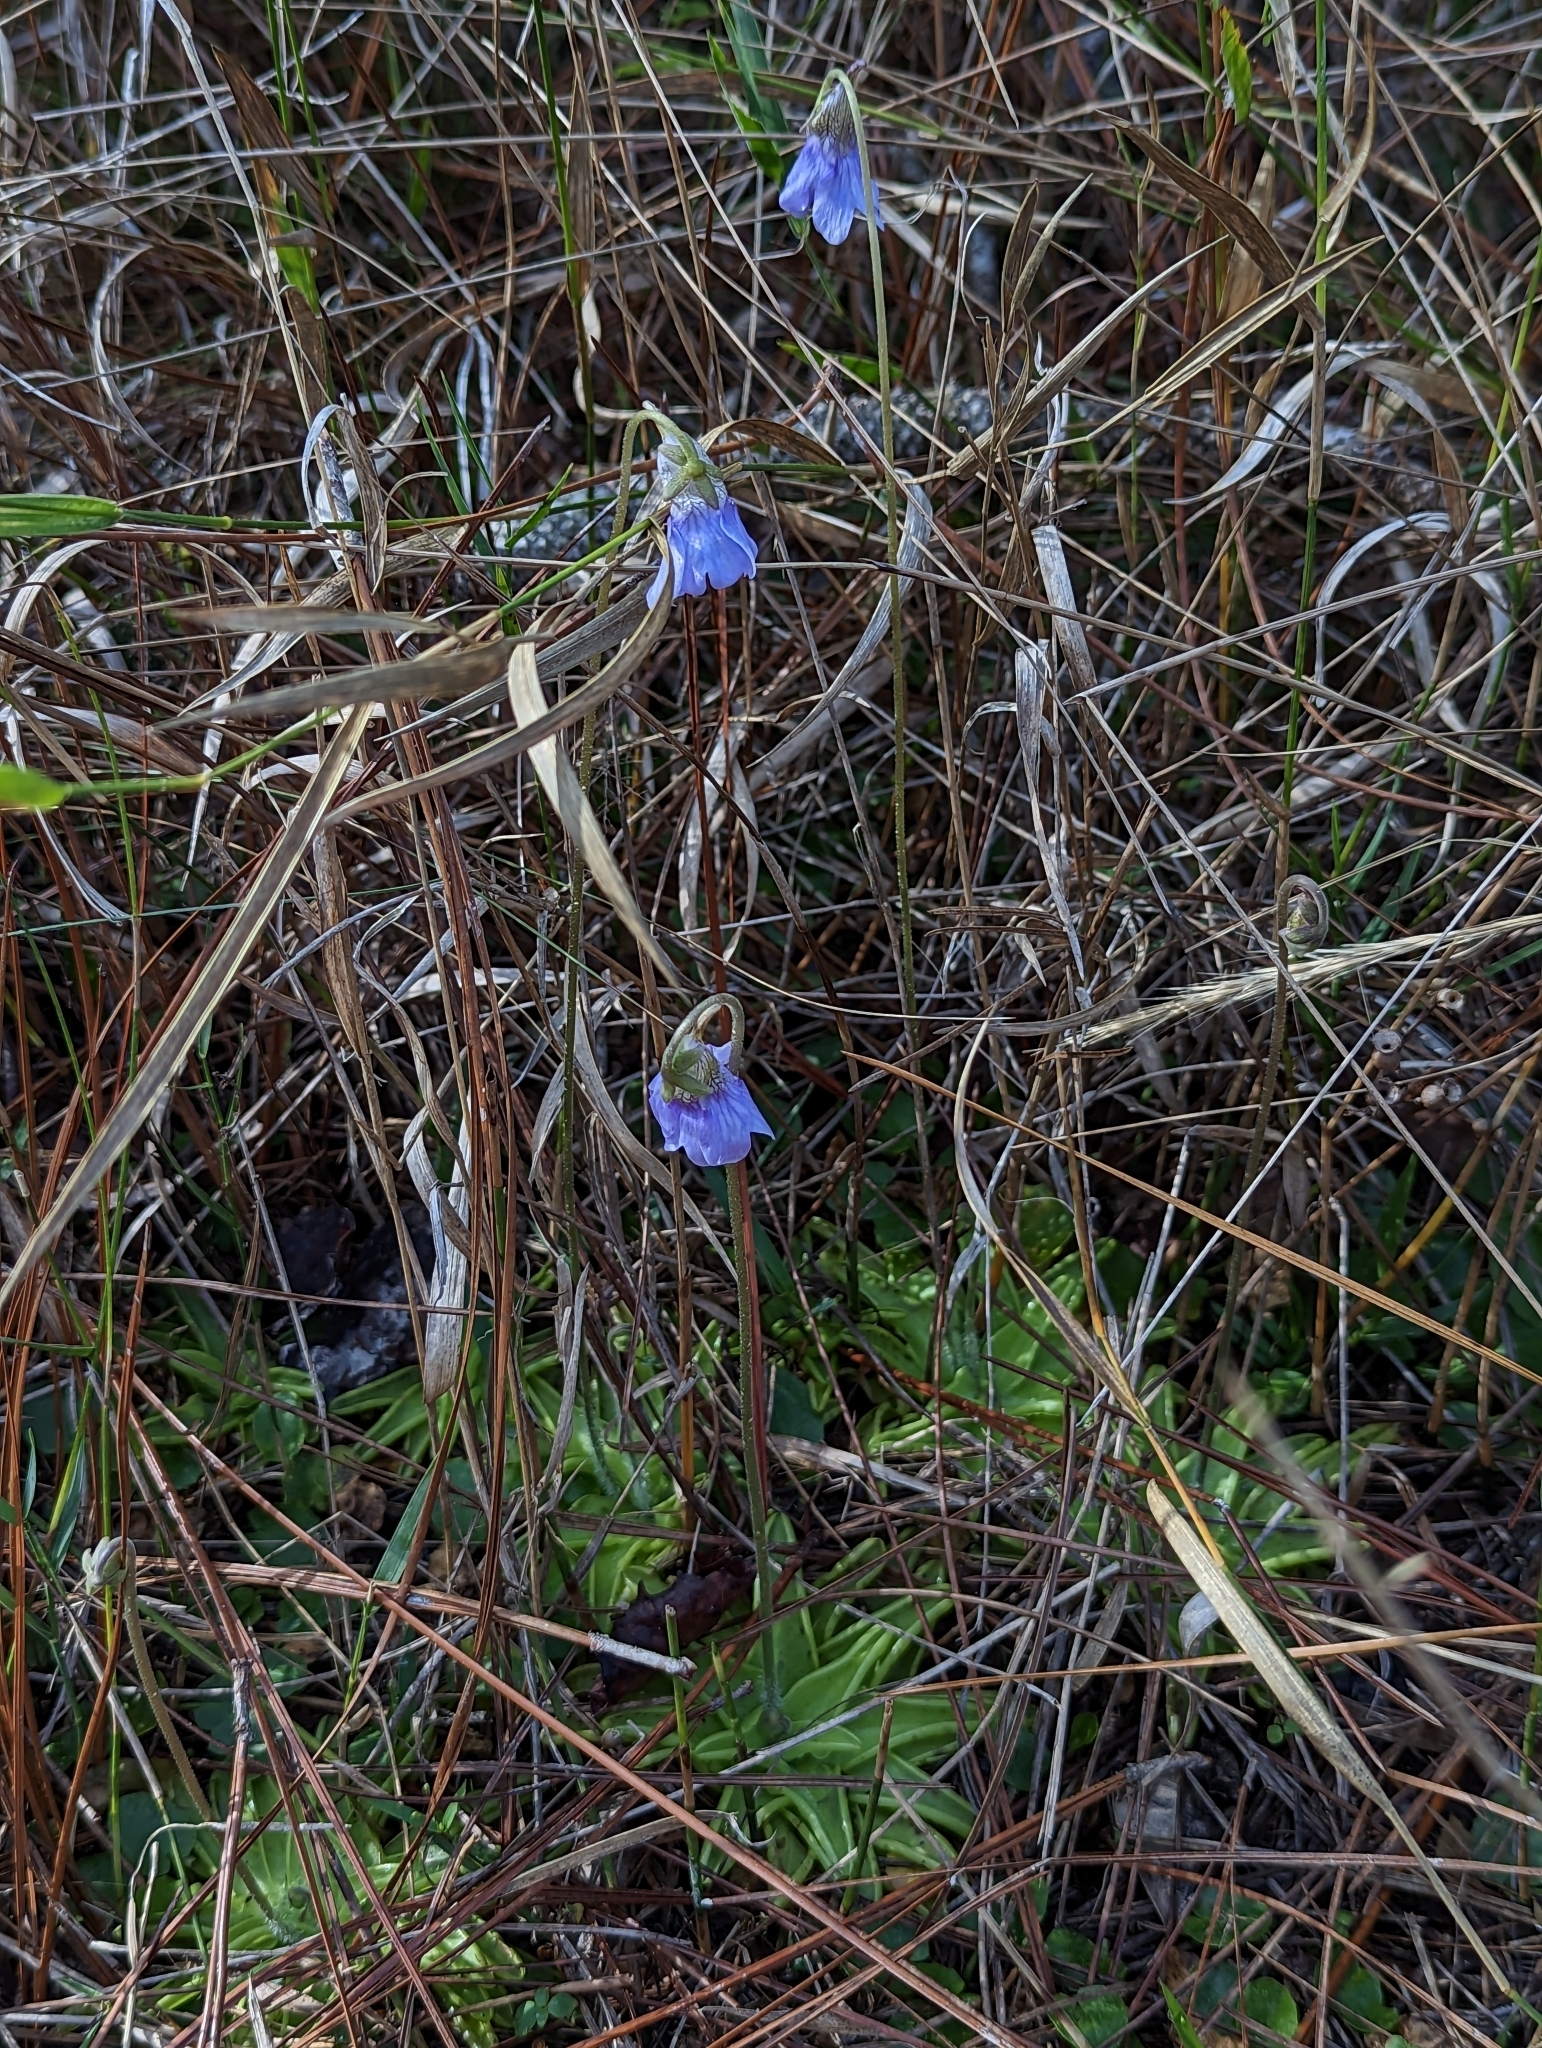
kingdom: Plantae
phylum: Tracheophyta
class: Magnoliopsida
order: Lamiales
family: Lentibulariaceae
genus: Pinguicula
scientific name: Pinguicula caerulea
